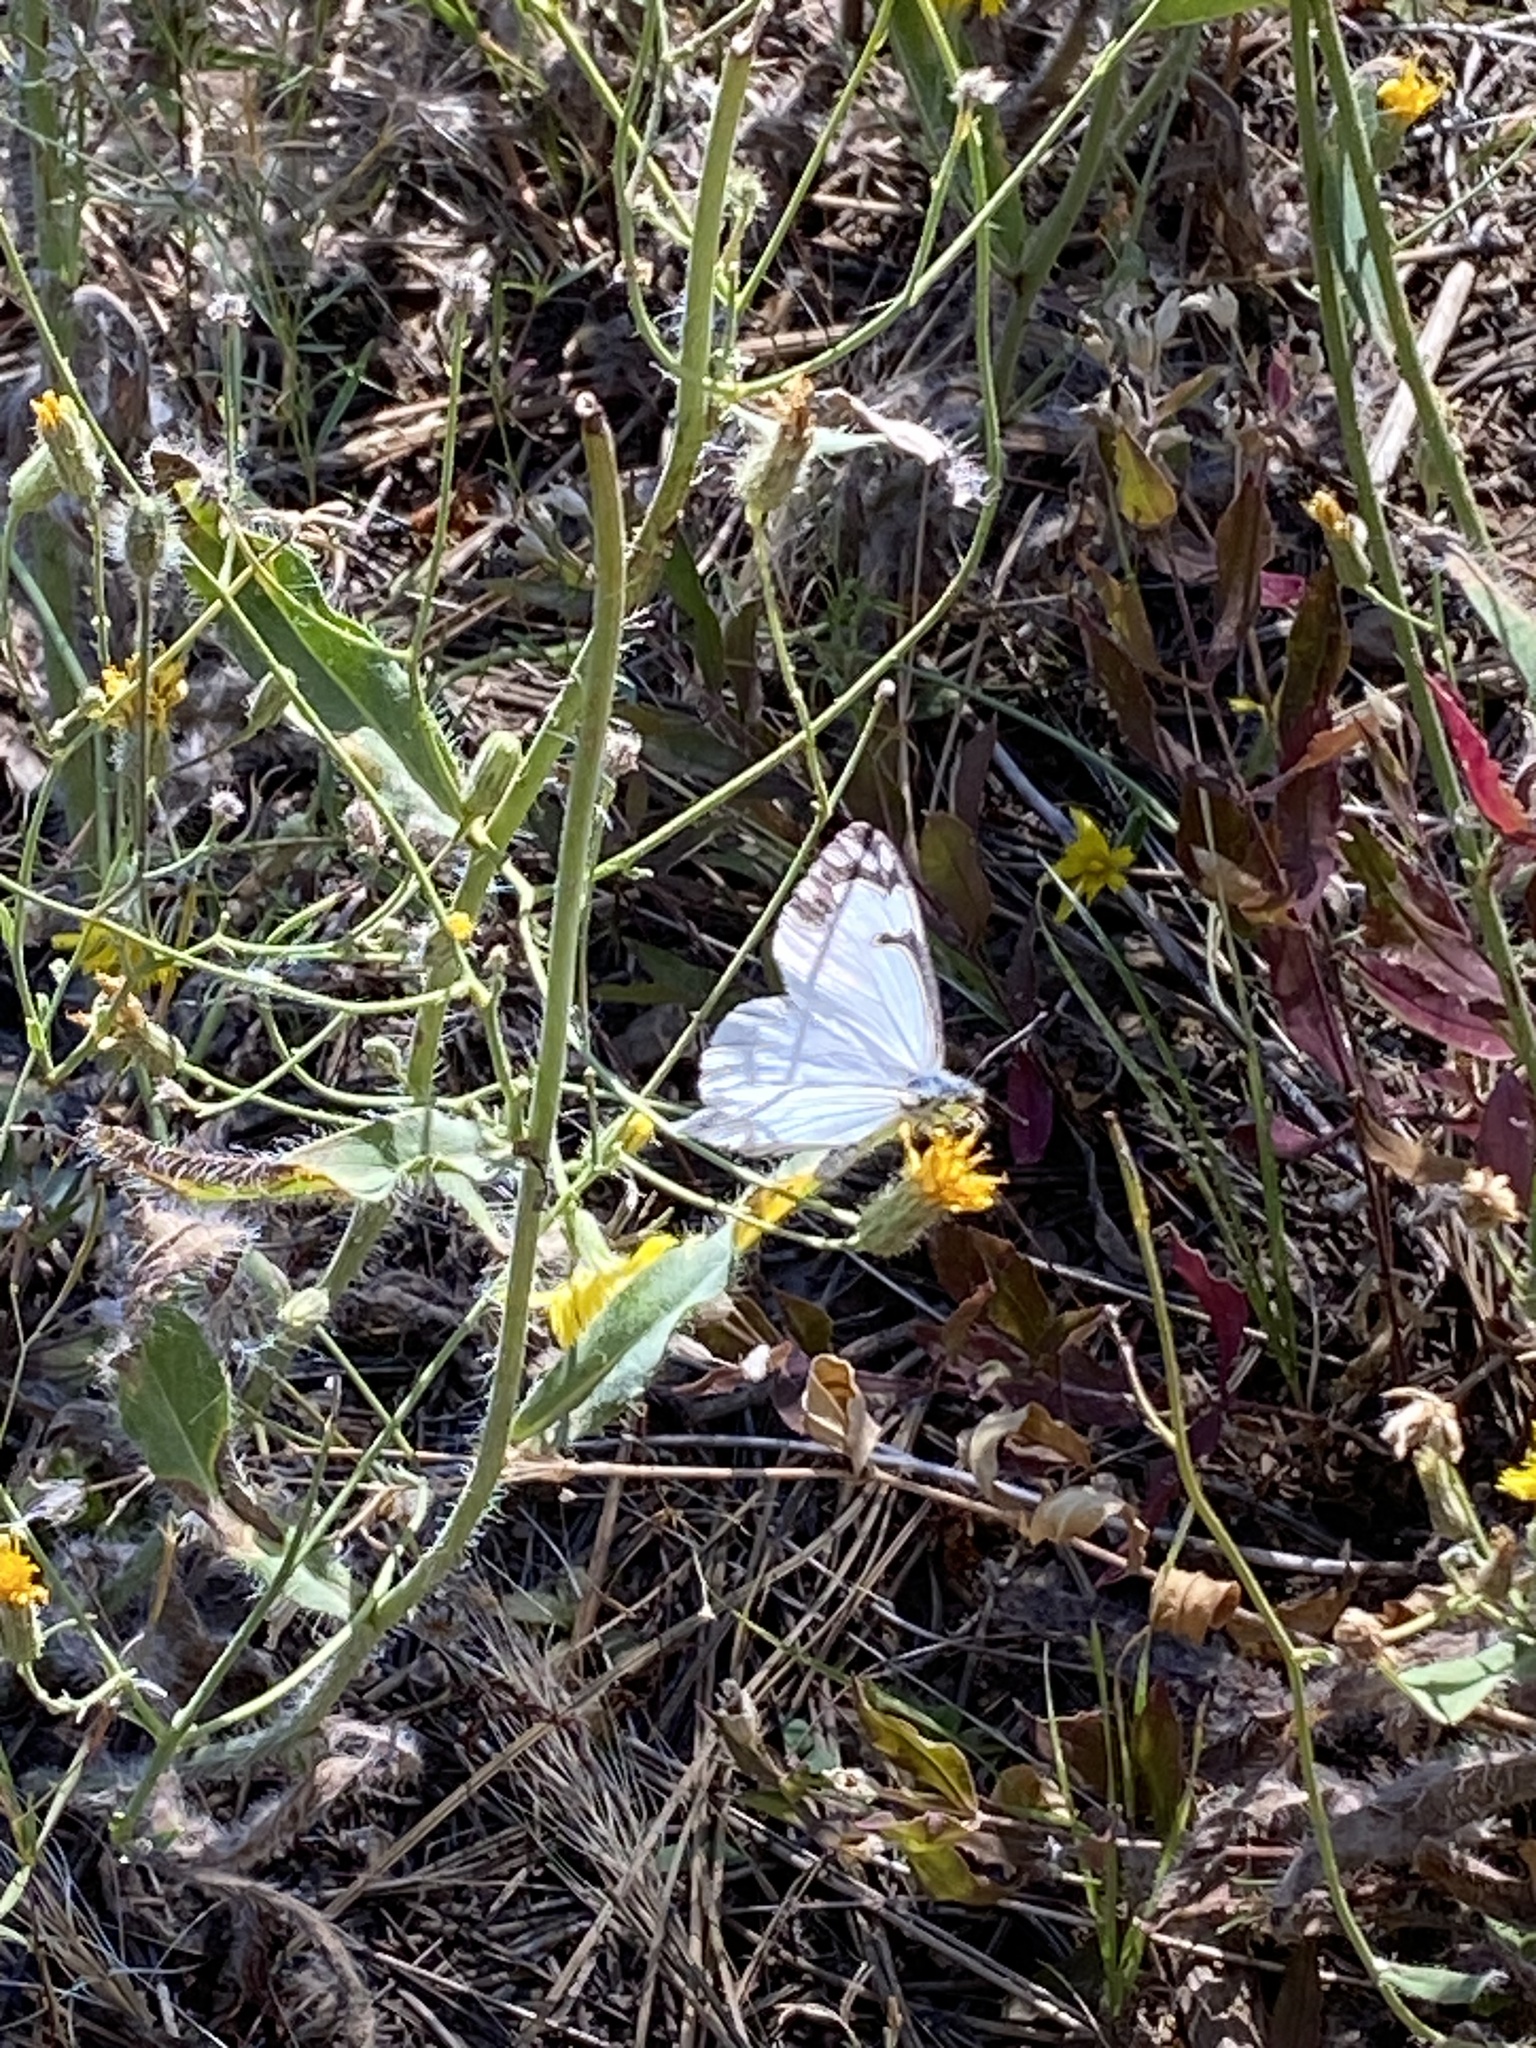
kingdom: Animalia
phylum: Arthropoda
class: Insecta
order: Lepidoptera
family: Pieridae
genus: Neophasia
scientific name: Neophasia menapia
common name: Pine white
